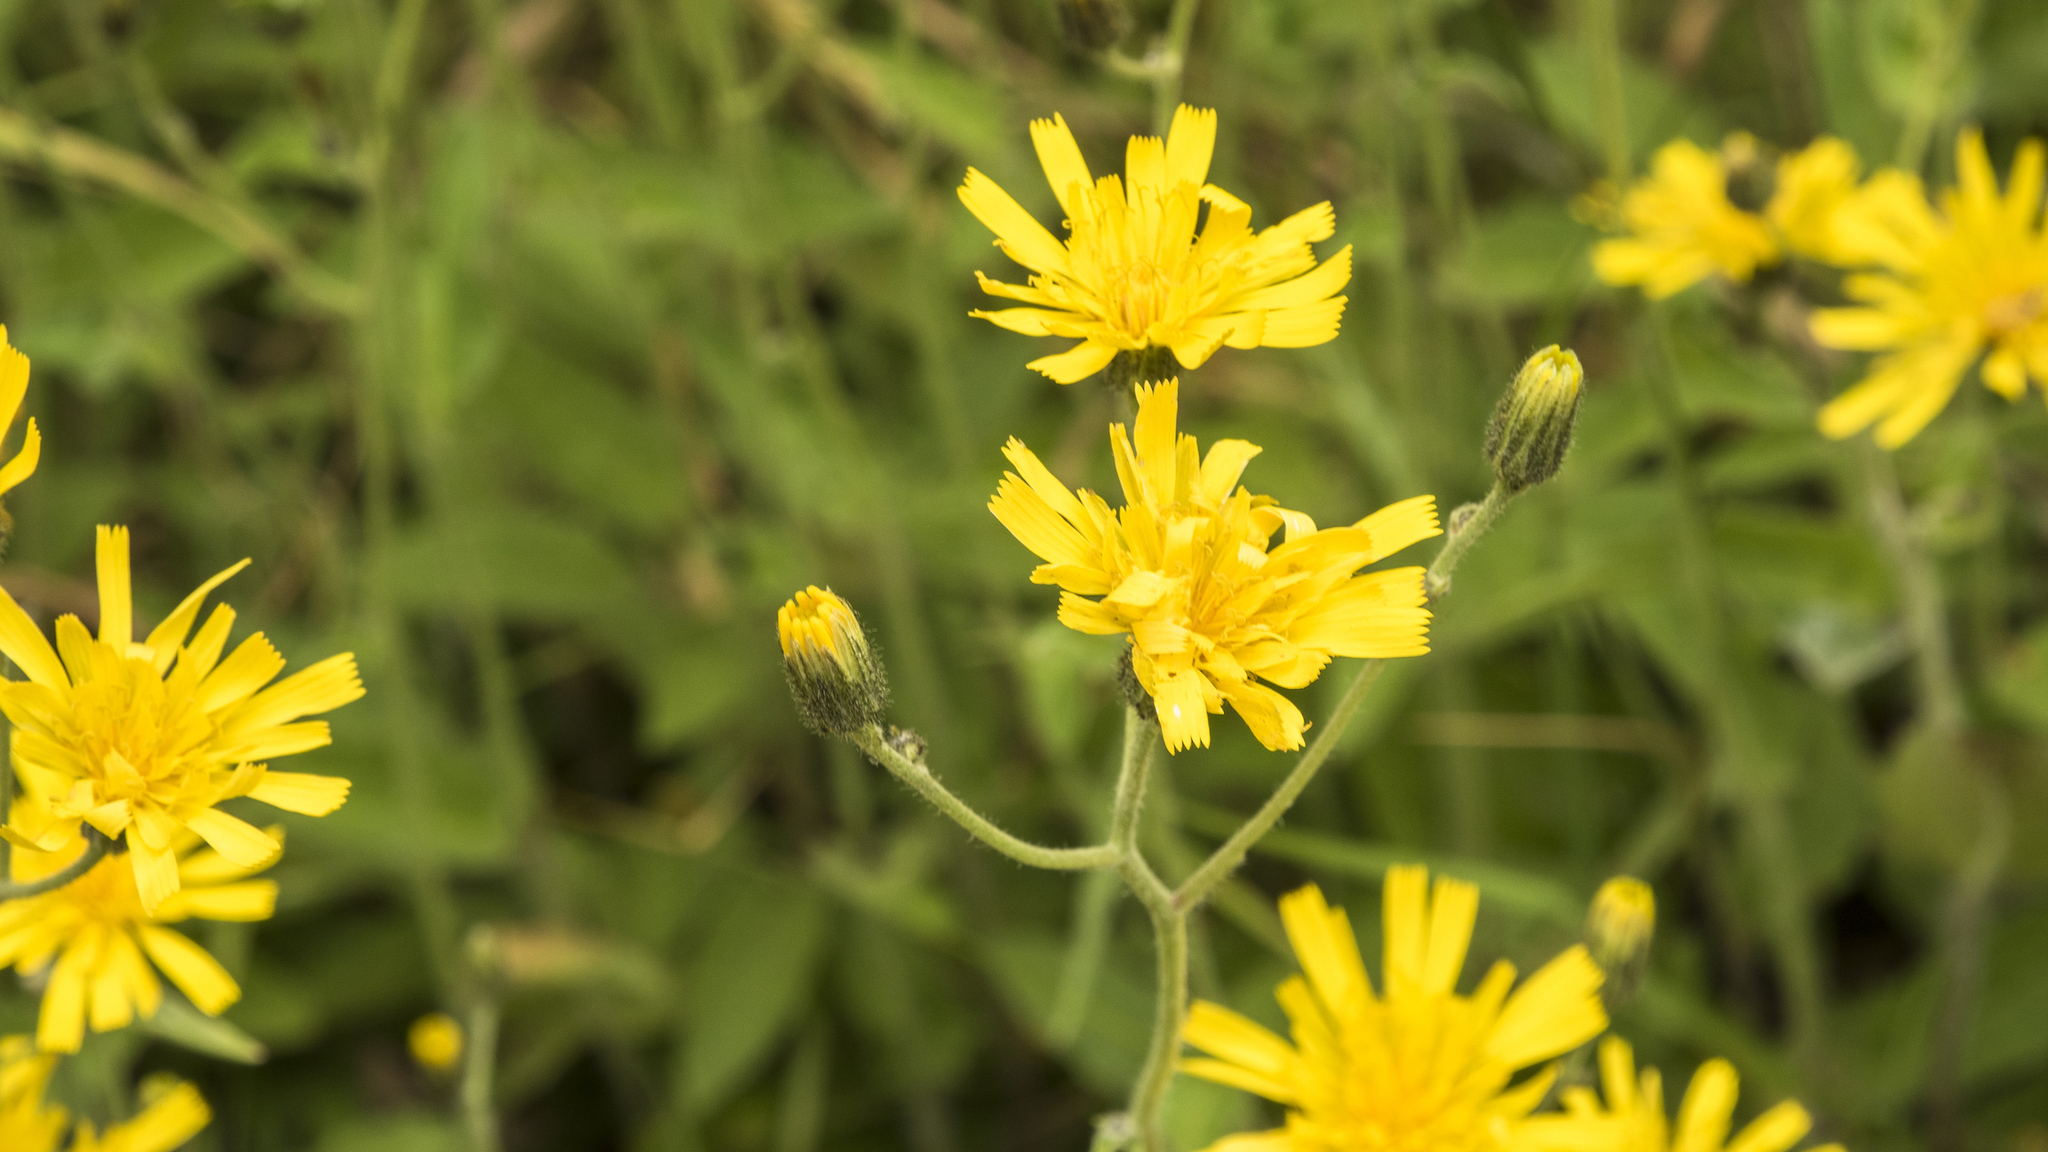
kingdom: Plantae
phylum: Tracheophyta
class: Magnoliopsida
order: Asterales
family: Asteraceae
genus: Hieracium
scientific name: Hieracium lepidulum
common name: Irregular-toothed hawkweed
